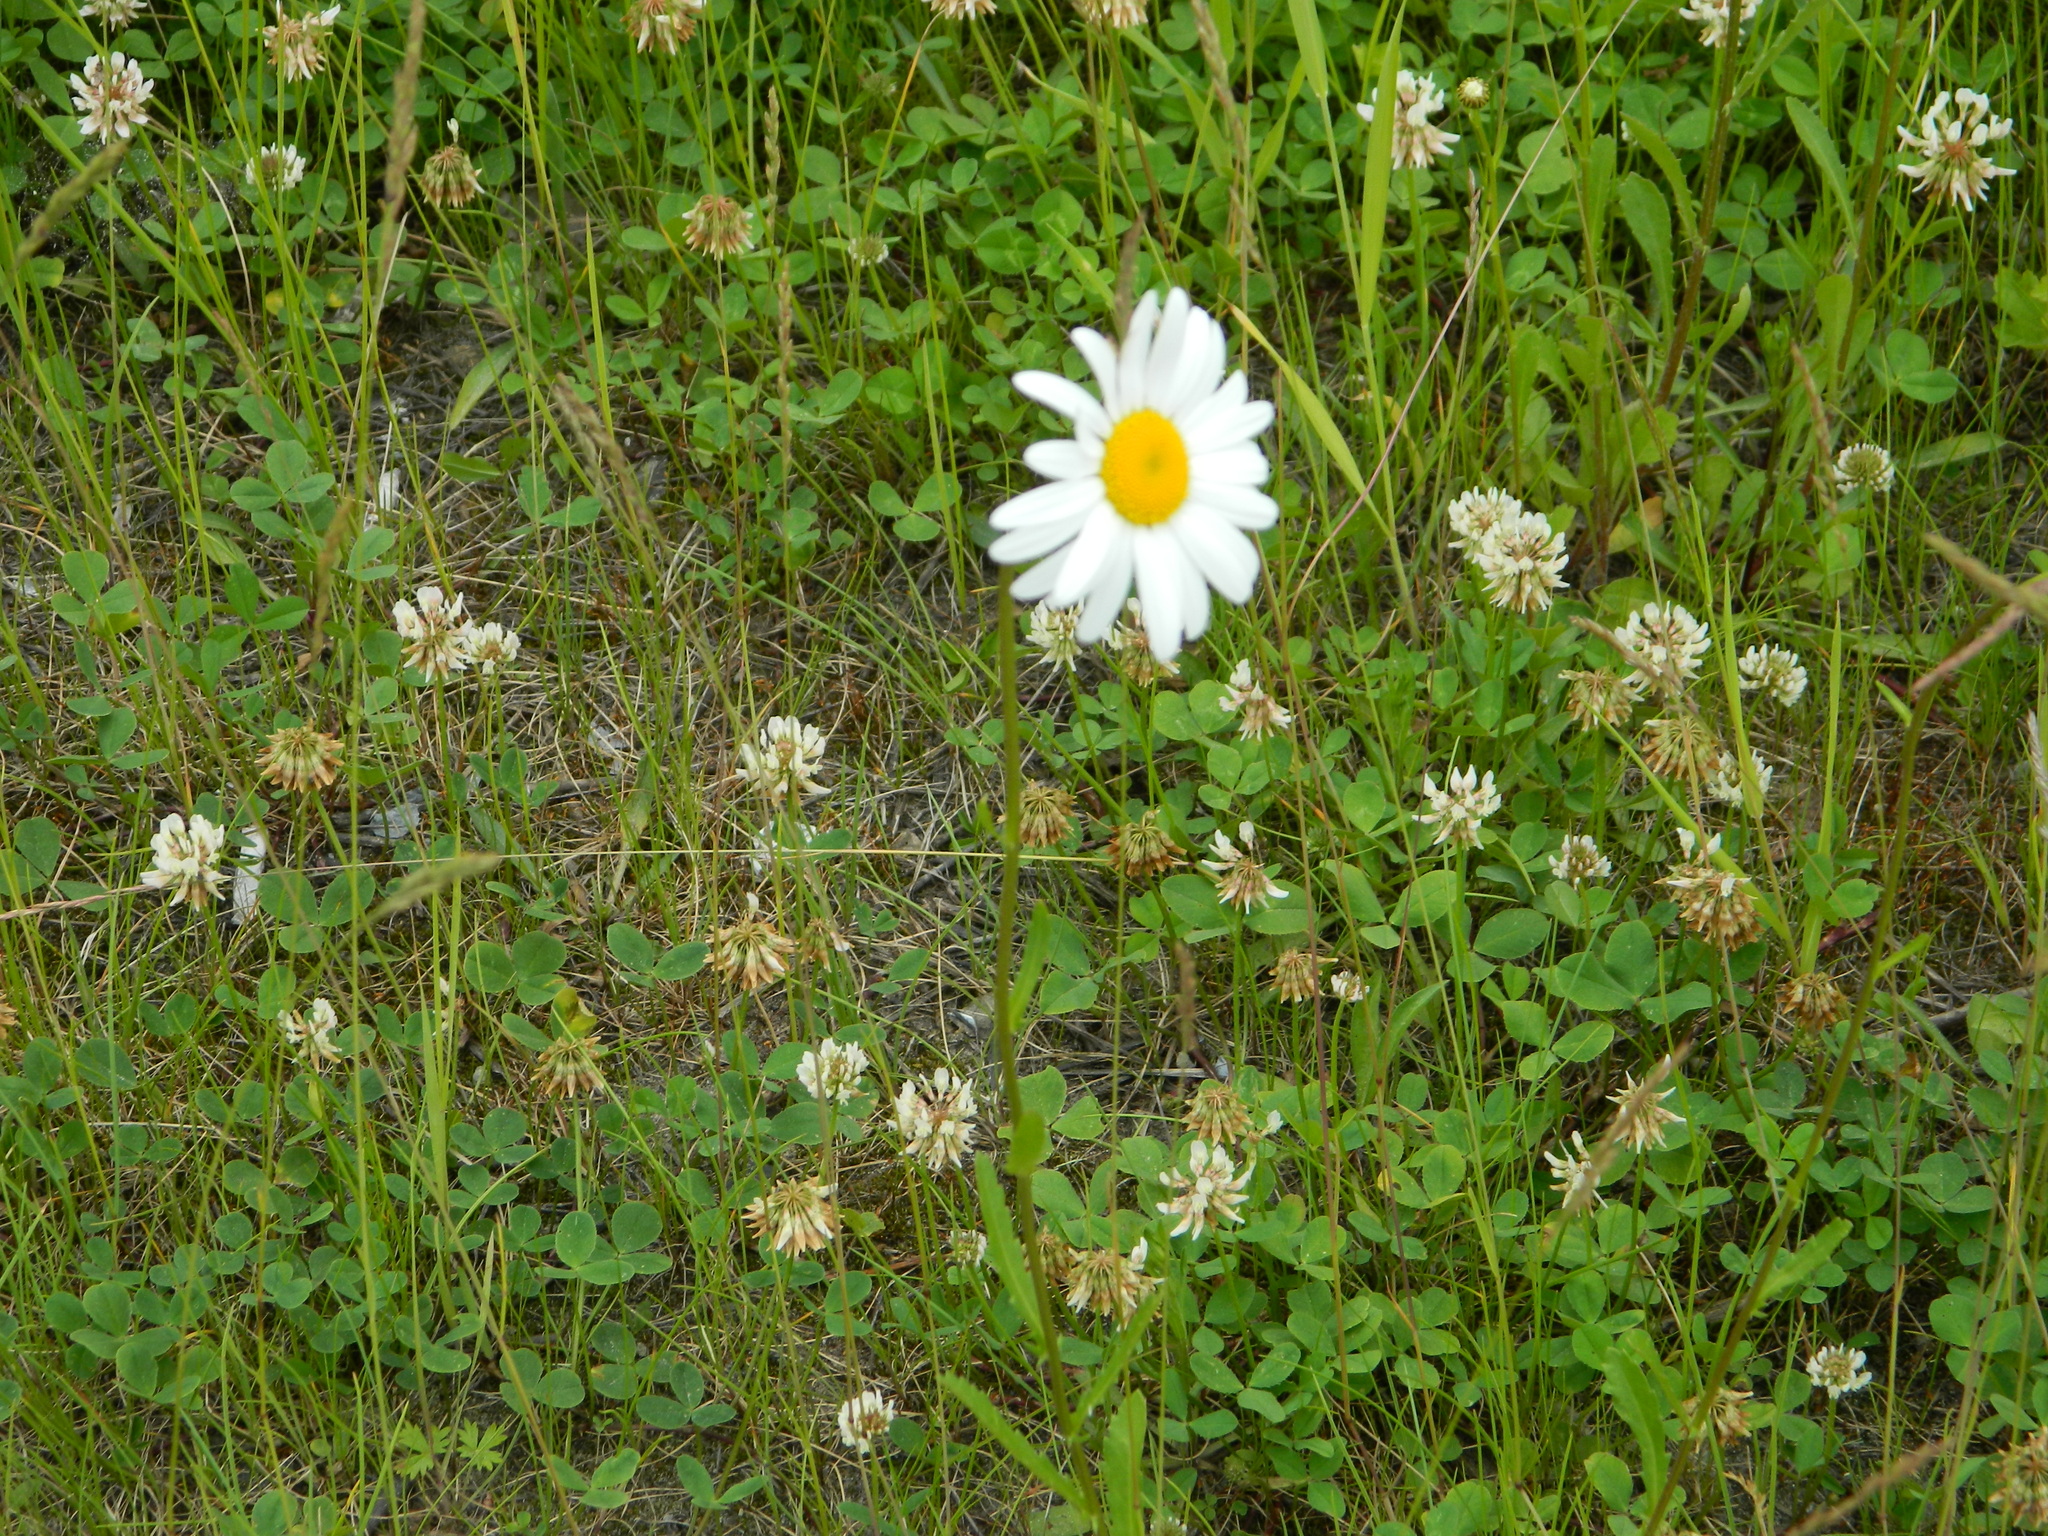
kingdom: Plantae
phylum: Tracheophyta
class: Magnoliopsida
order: Asterales
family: Asteraceae
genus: Leucanthemum
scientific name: Leucanthemum ircutianum
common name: Daisy
